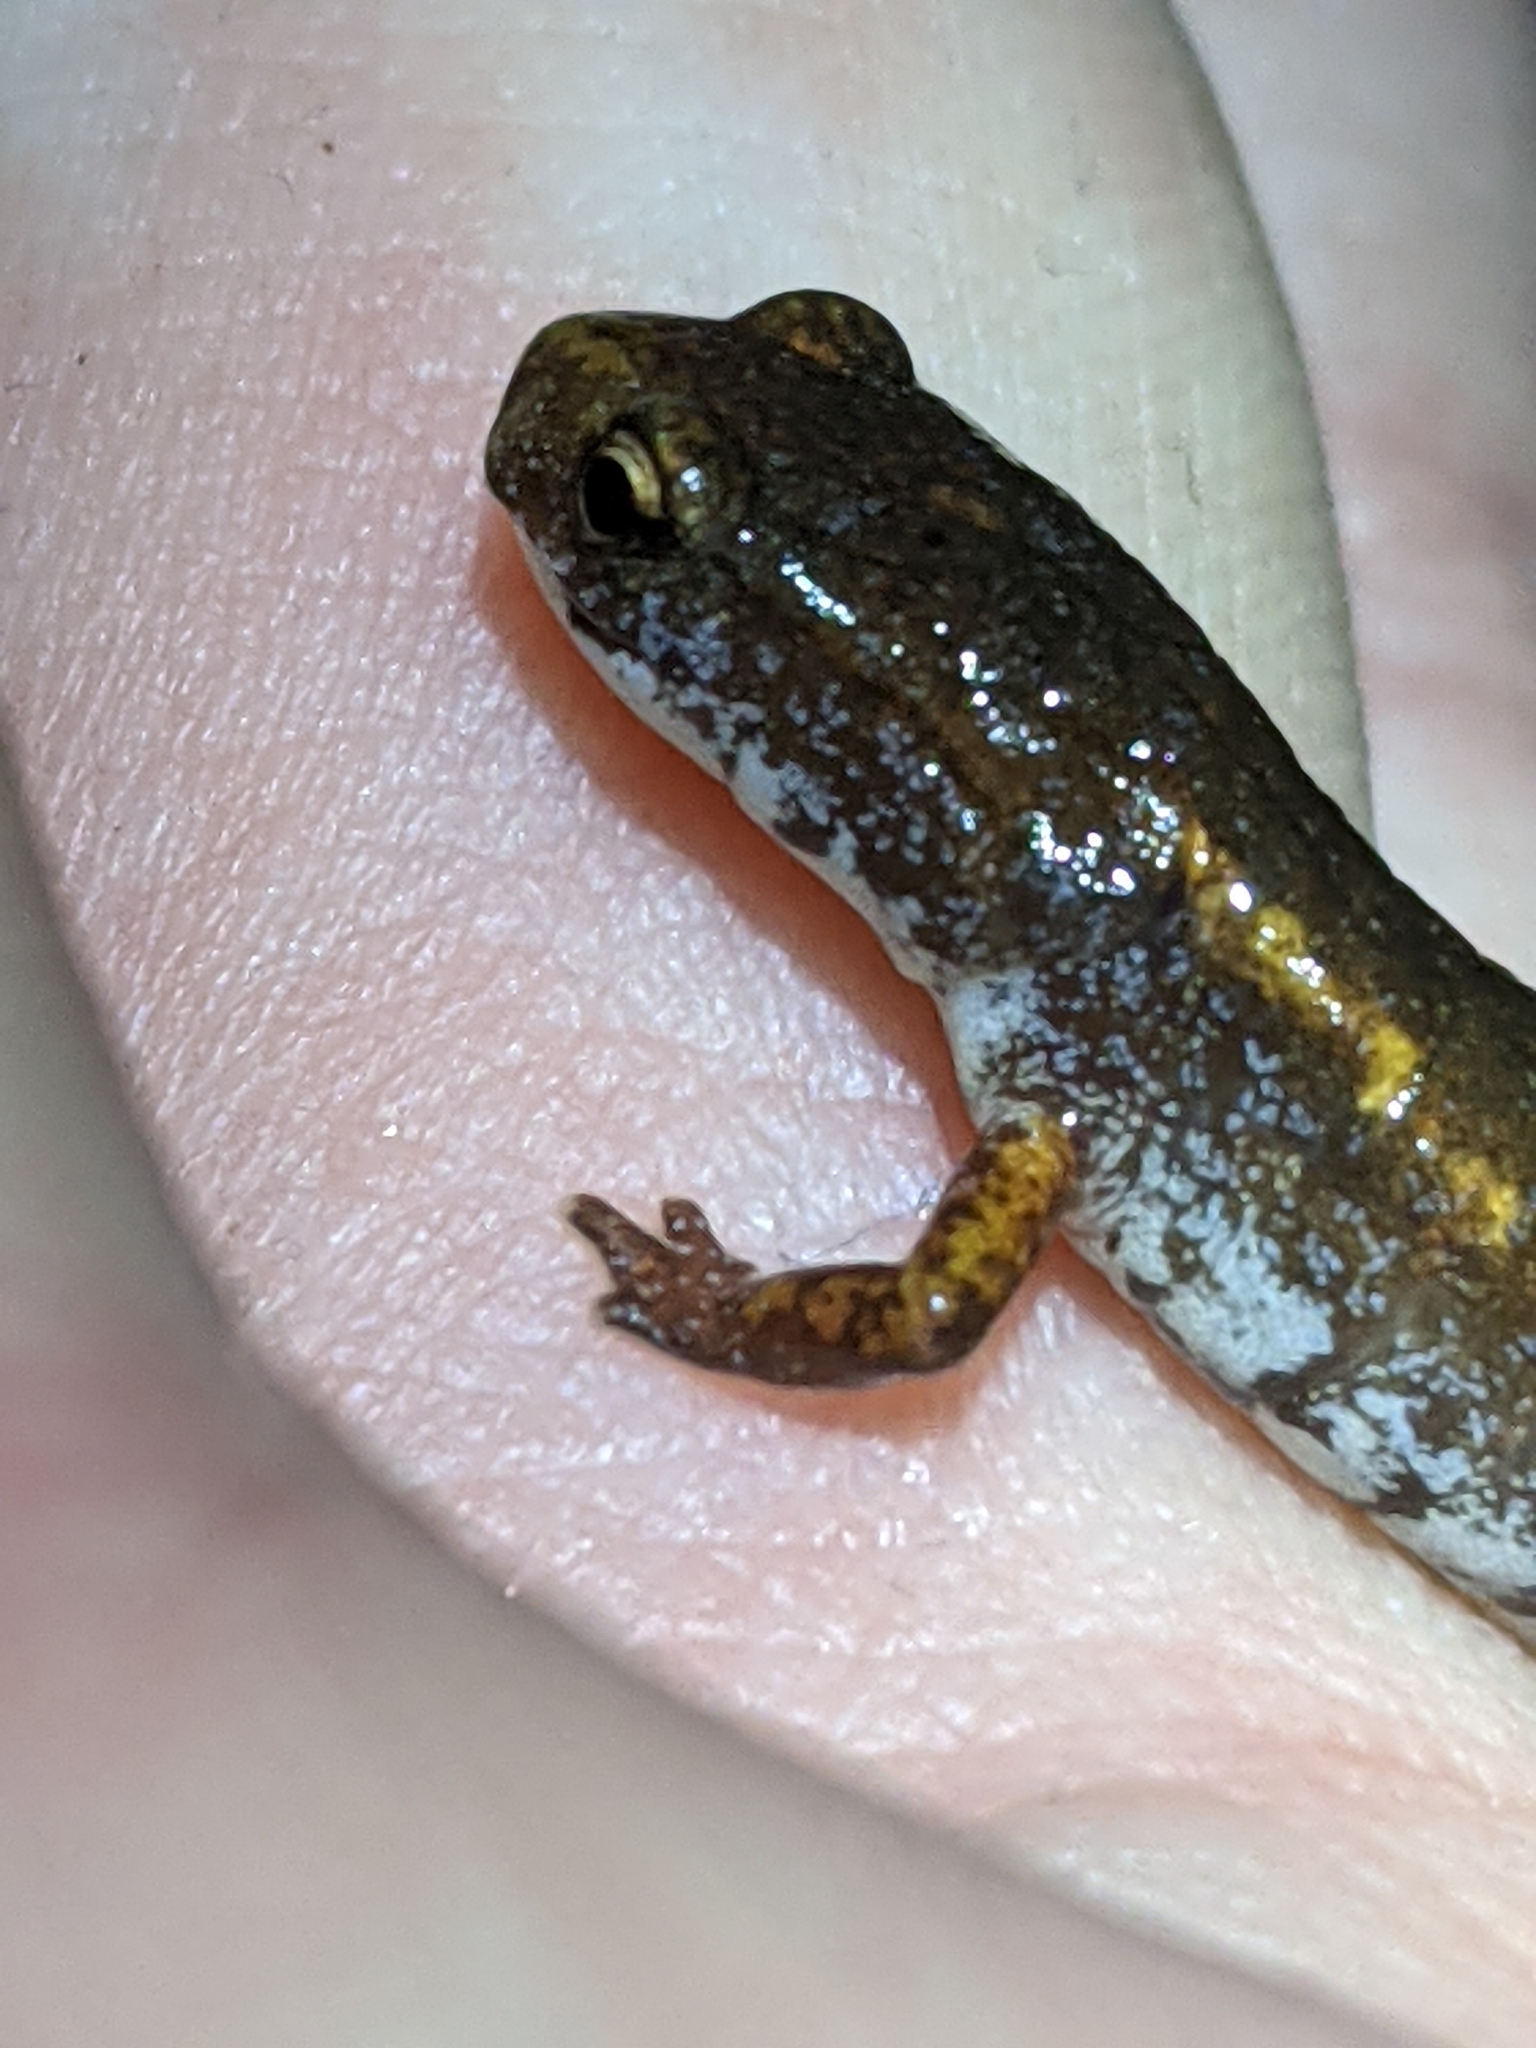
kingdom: Animalia
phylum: Chordata
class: Amphibia
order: Caudata
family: Plethodontidae
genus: Hemidactylium
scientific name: Hemidactylium scutatum
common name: Four-toed salamander
